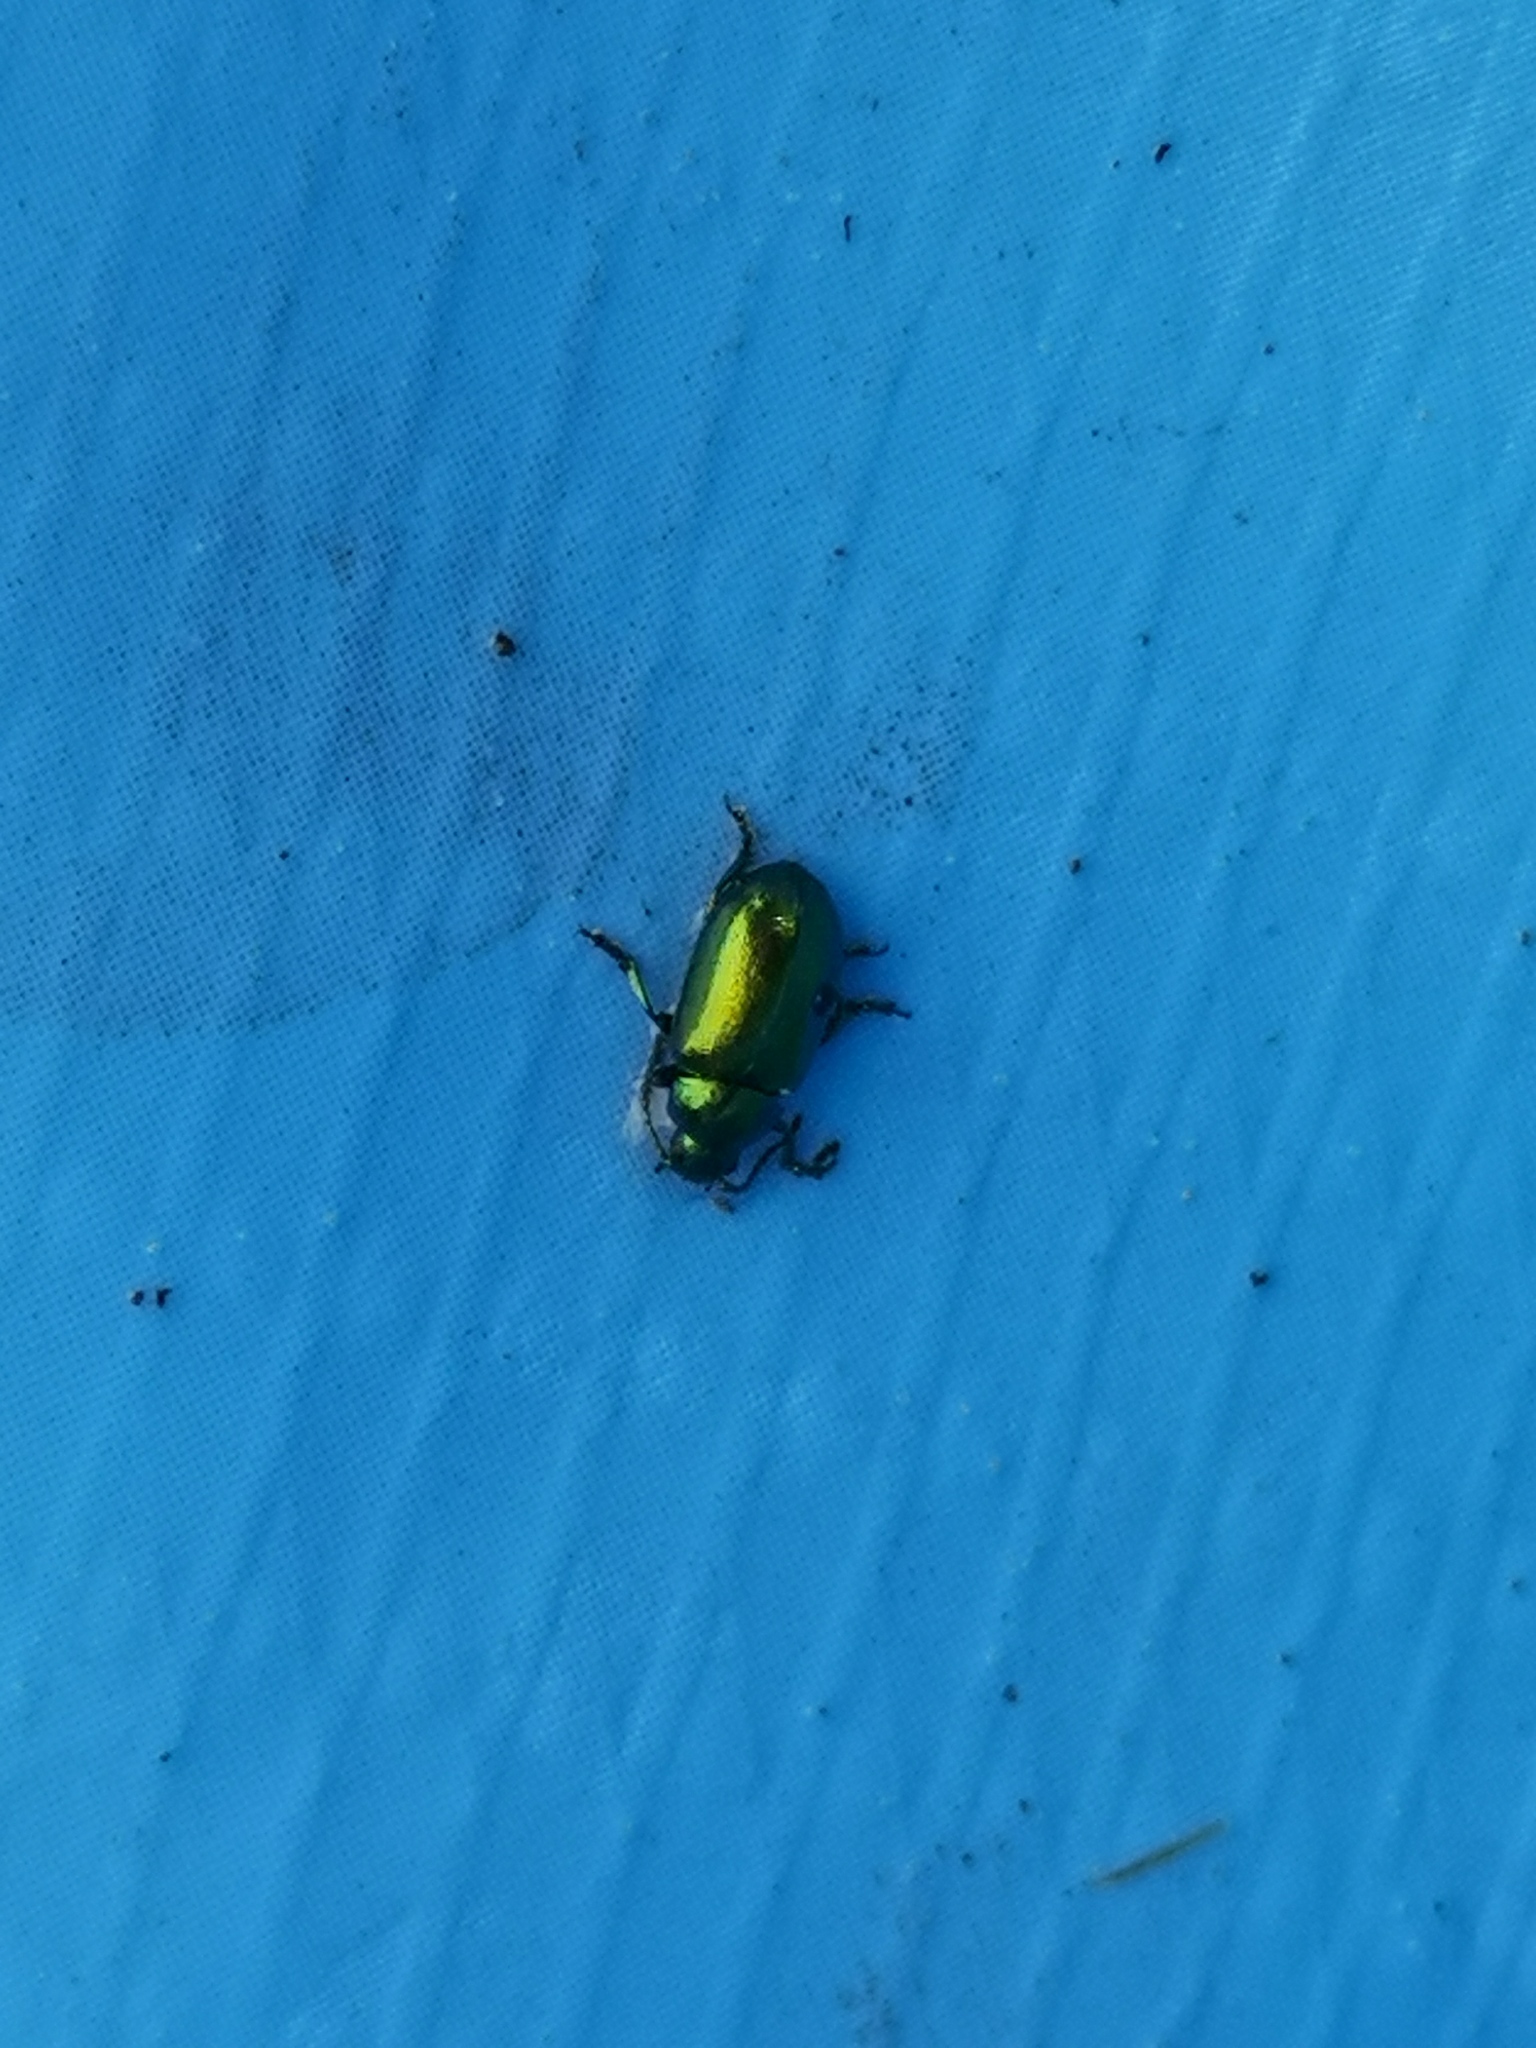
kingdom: Animalia
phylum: Arthropoda
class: Insecta
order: Coleoptera
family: Chrysomelidae
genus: Gastrophysa
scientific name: Gastrophysa viridula
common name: Green dock beetle
